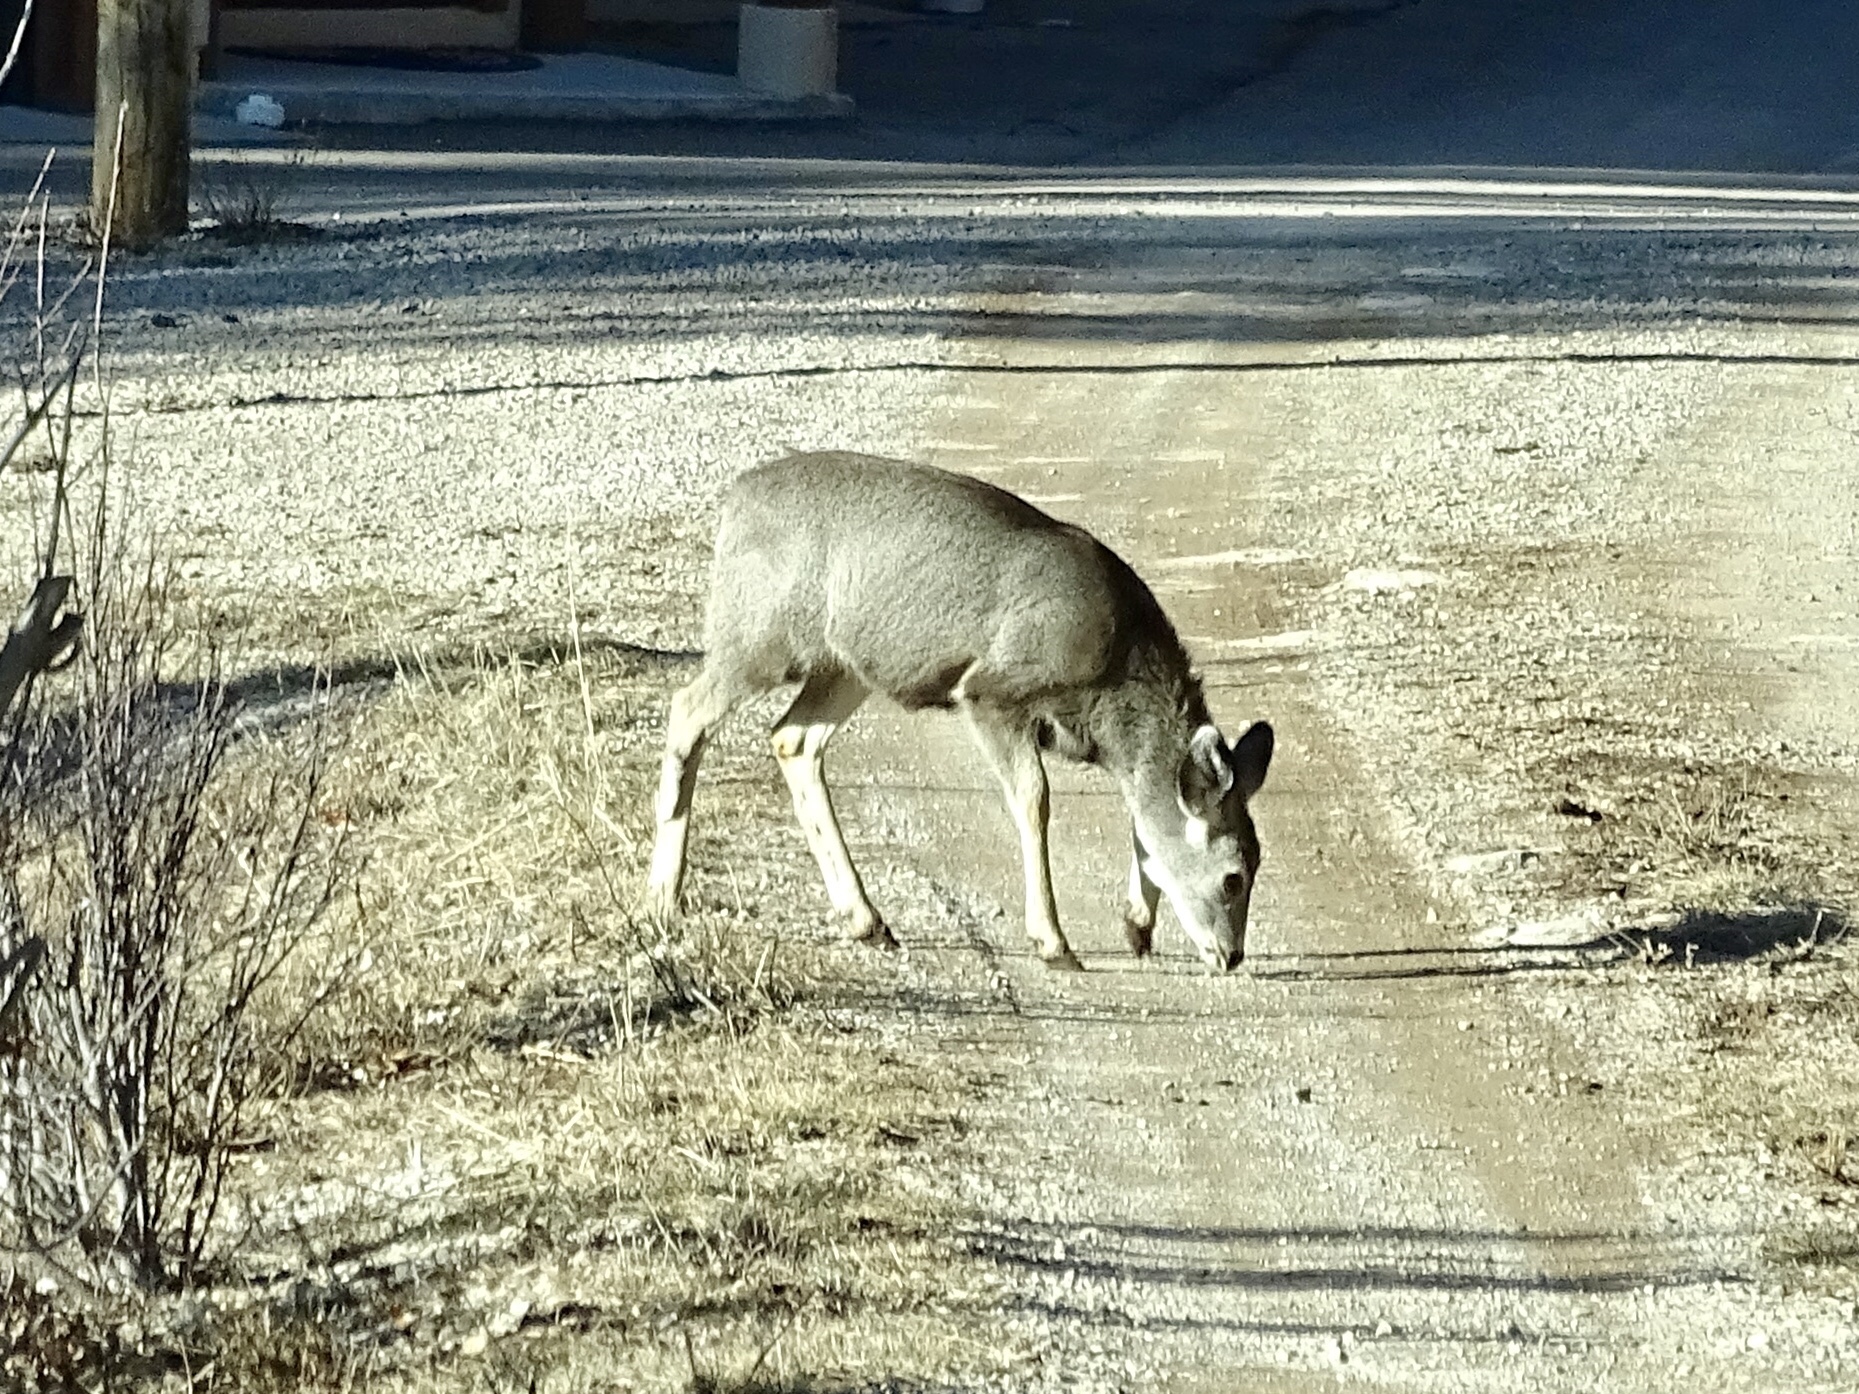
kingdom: Animalia
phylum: Chordata
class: Mammalia
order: Artiodactyla
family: Cervidae
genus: Odocoileus
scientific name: Odocoileus hemionus
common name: Mule deer
